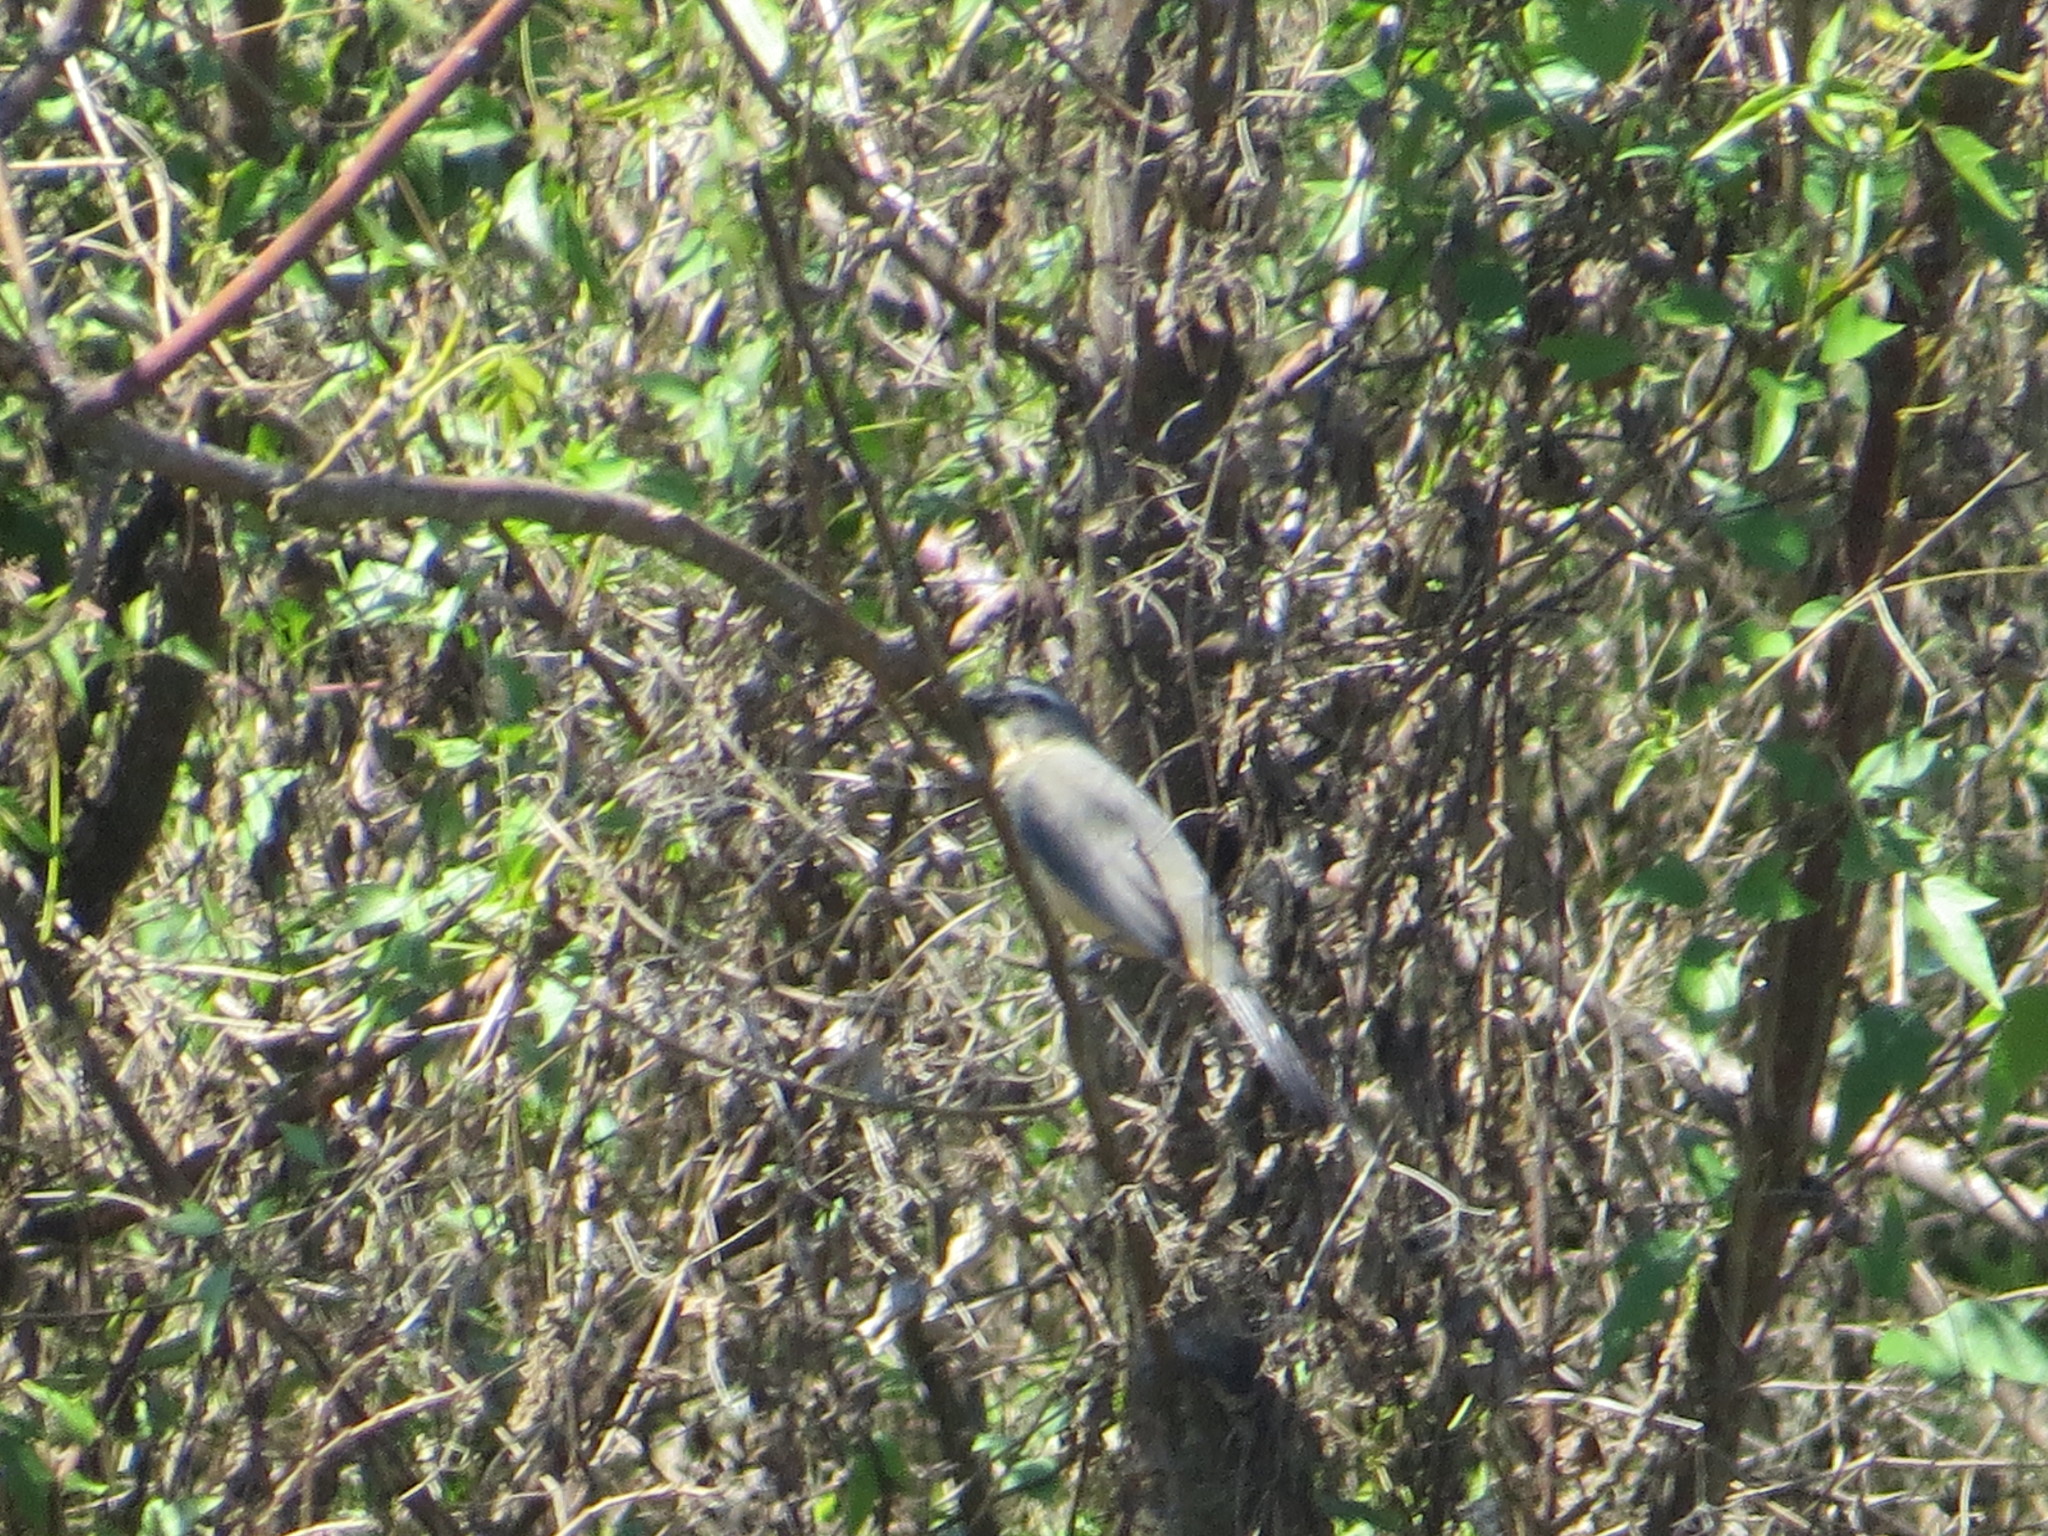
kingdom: Animalia
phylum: Chordata
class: Aves
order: Passeriformes
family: Thraupidae
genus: Saltator
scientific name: Saltator coerulescens
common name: Grayish saltator
